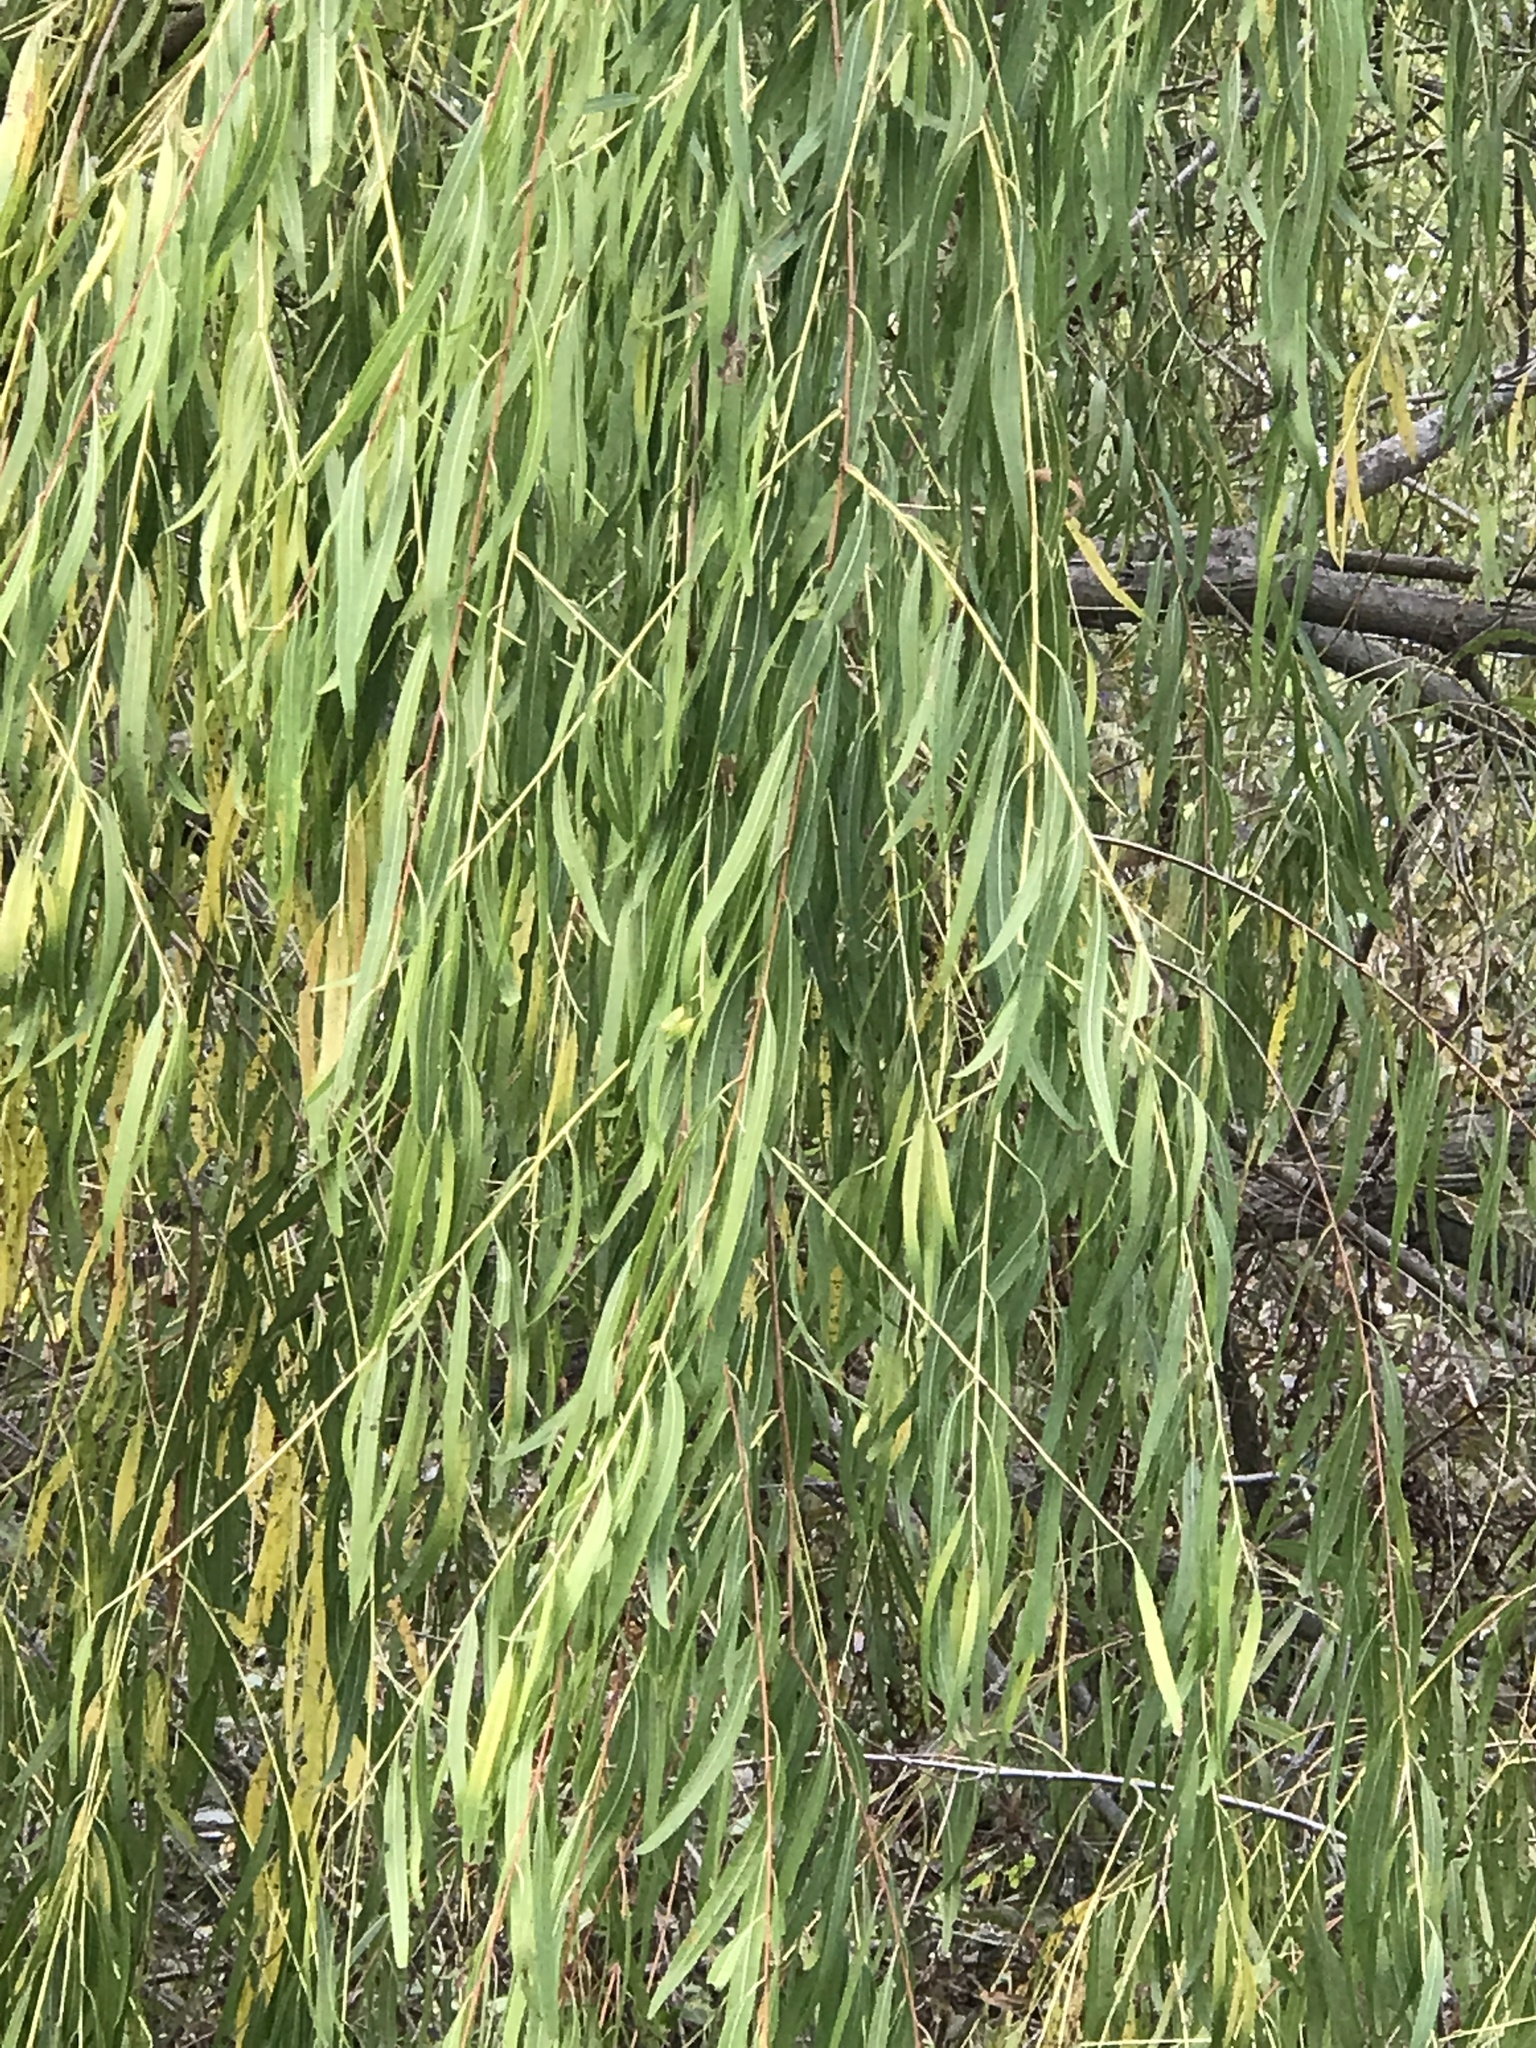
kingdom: Plantae
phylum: Tracheophyta
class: Magnoliopsida
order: Malpighiales
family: Salicaceae
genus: Salix
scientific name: Salix nigra
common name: Black willow
